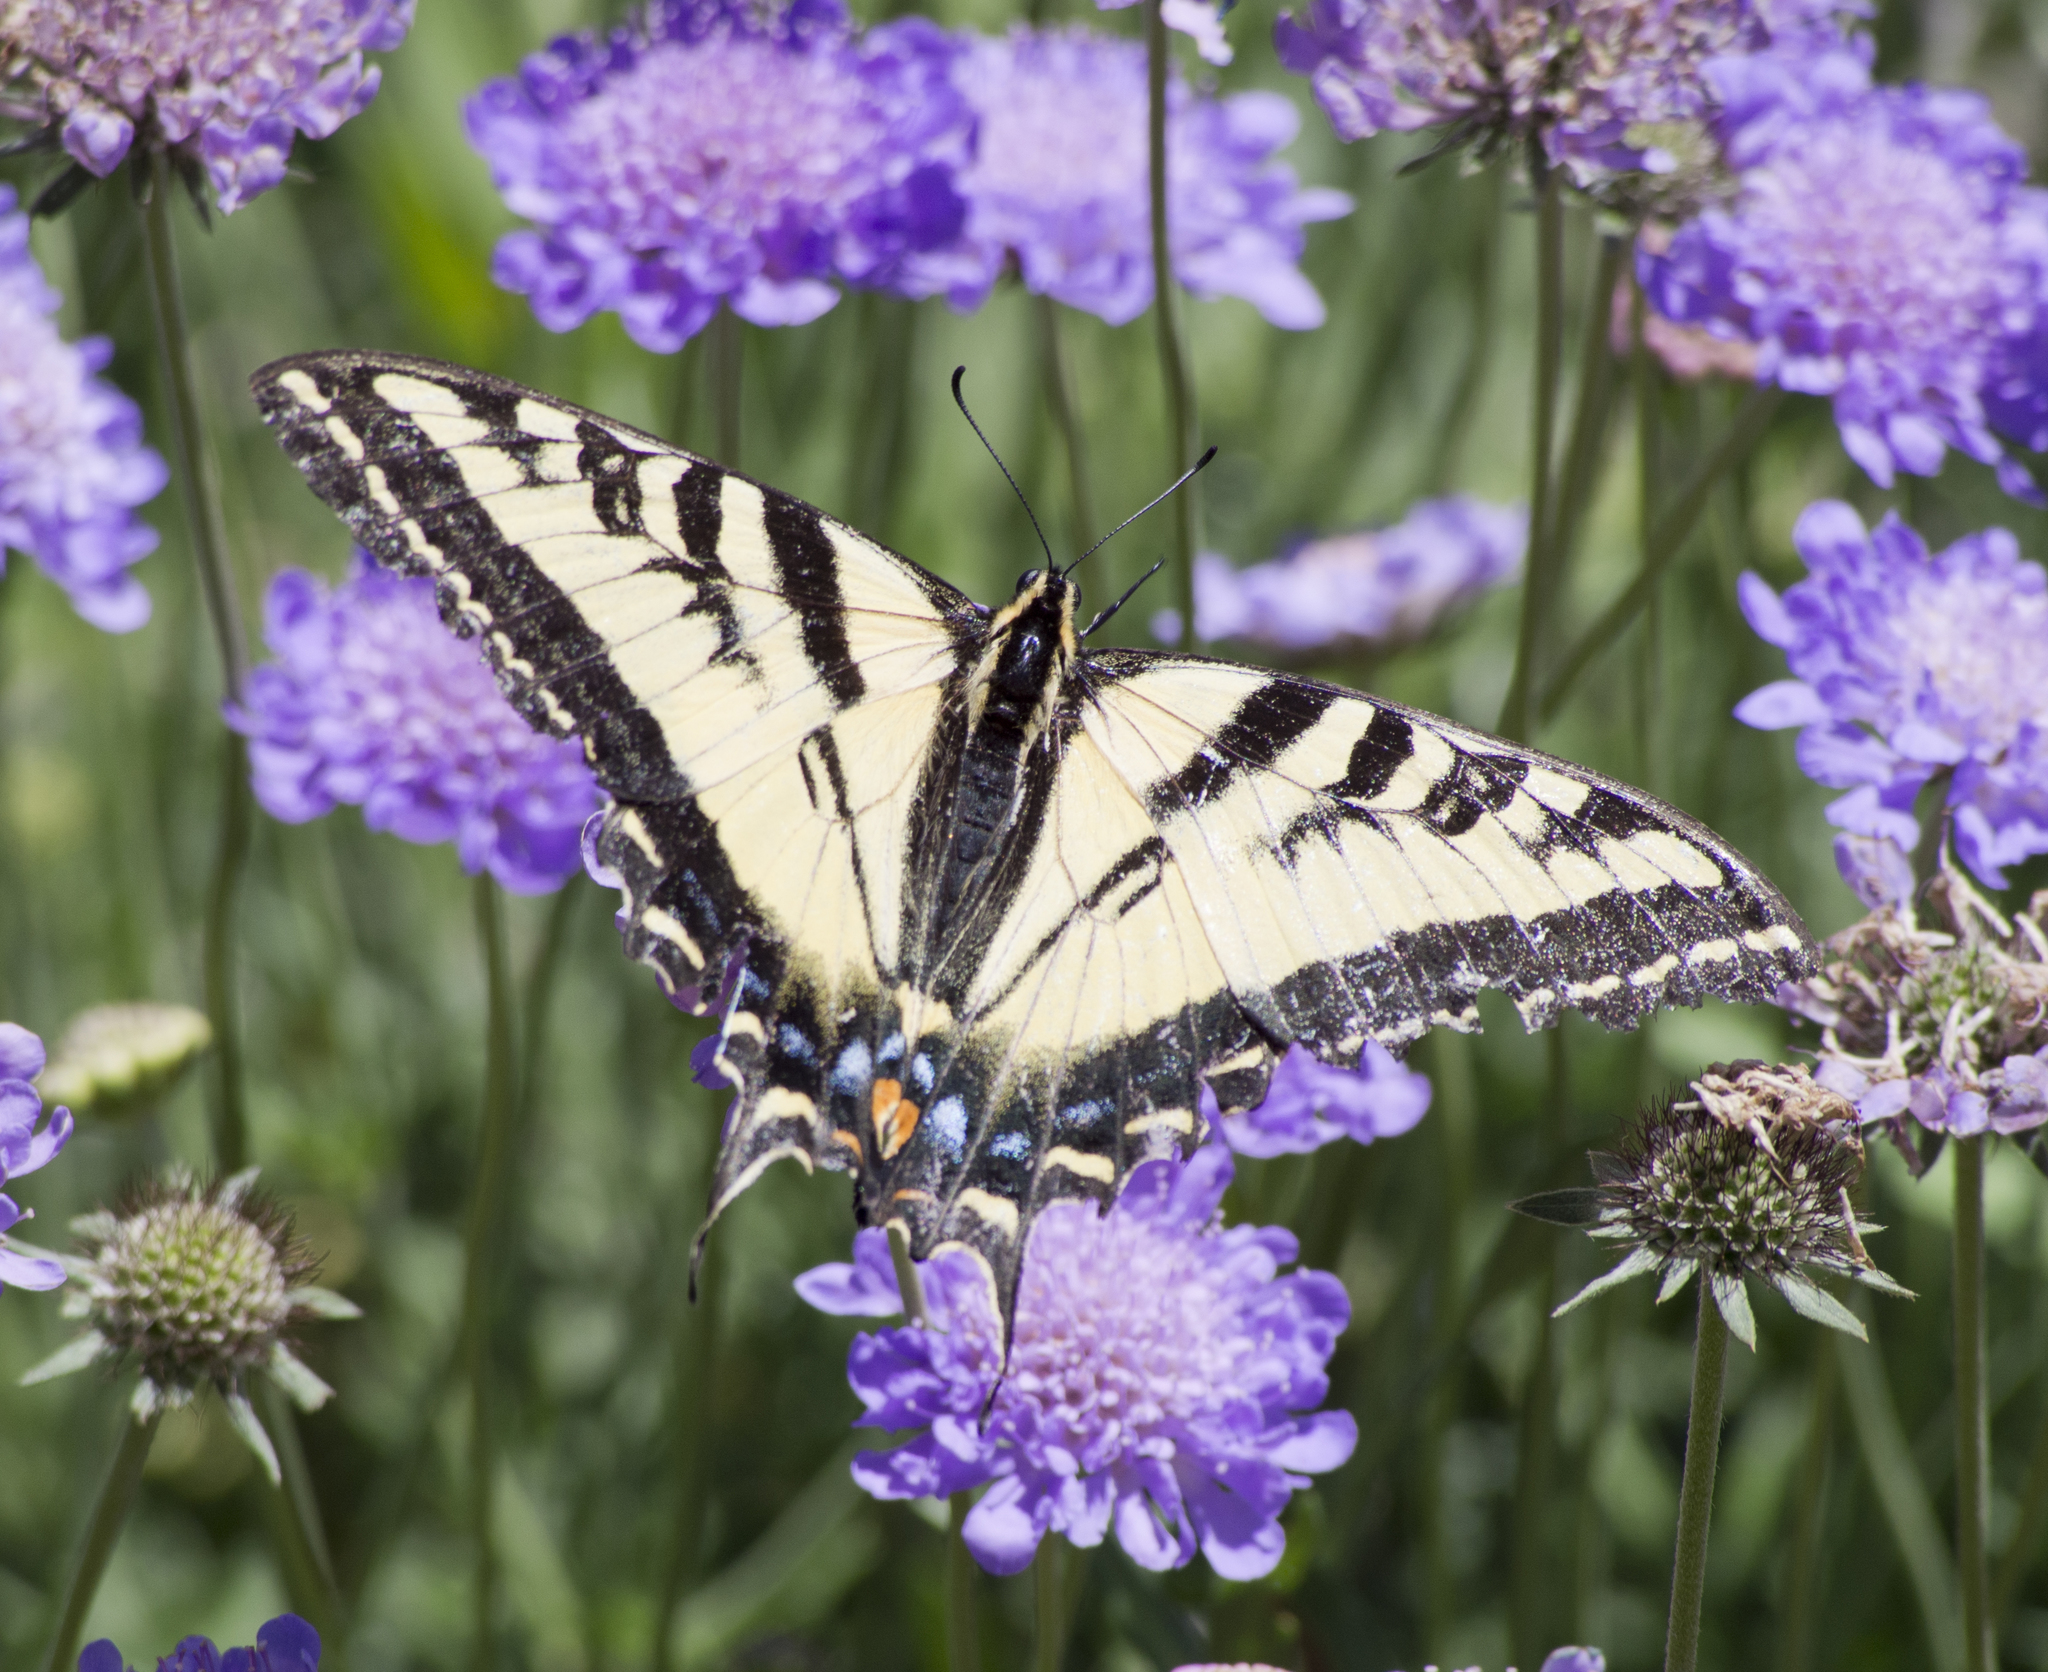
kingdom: Animalia
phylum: Arthropoda
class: Insecta
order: Lepidoptera
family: Papilionidae
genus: Papilio
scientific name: Papilio rutulus
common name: Western tiger swallowtail
